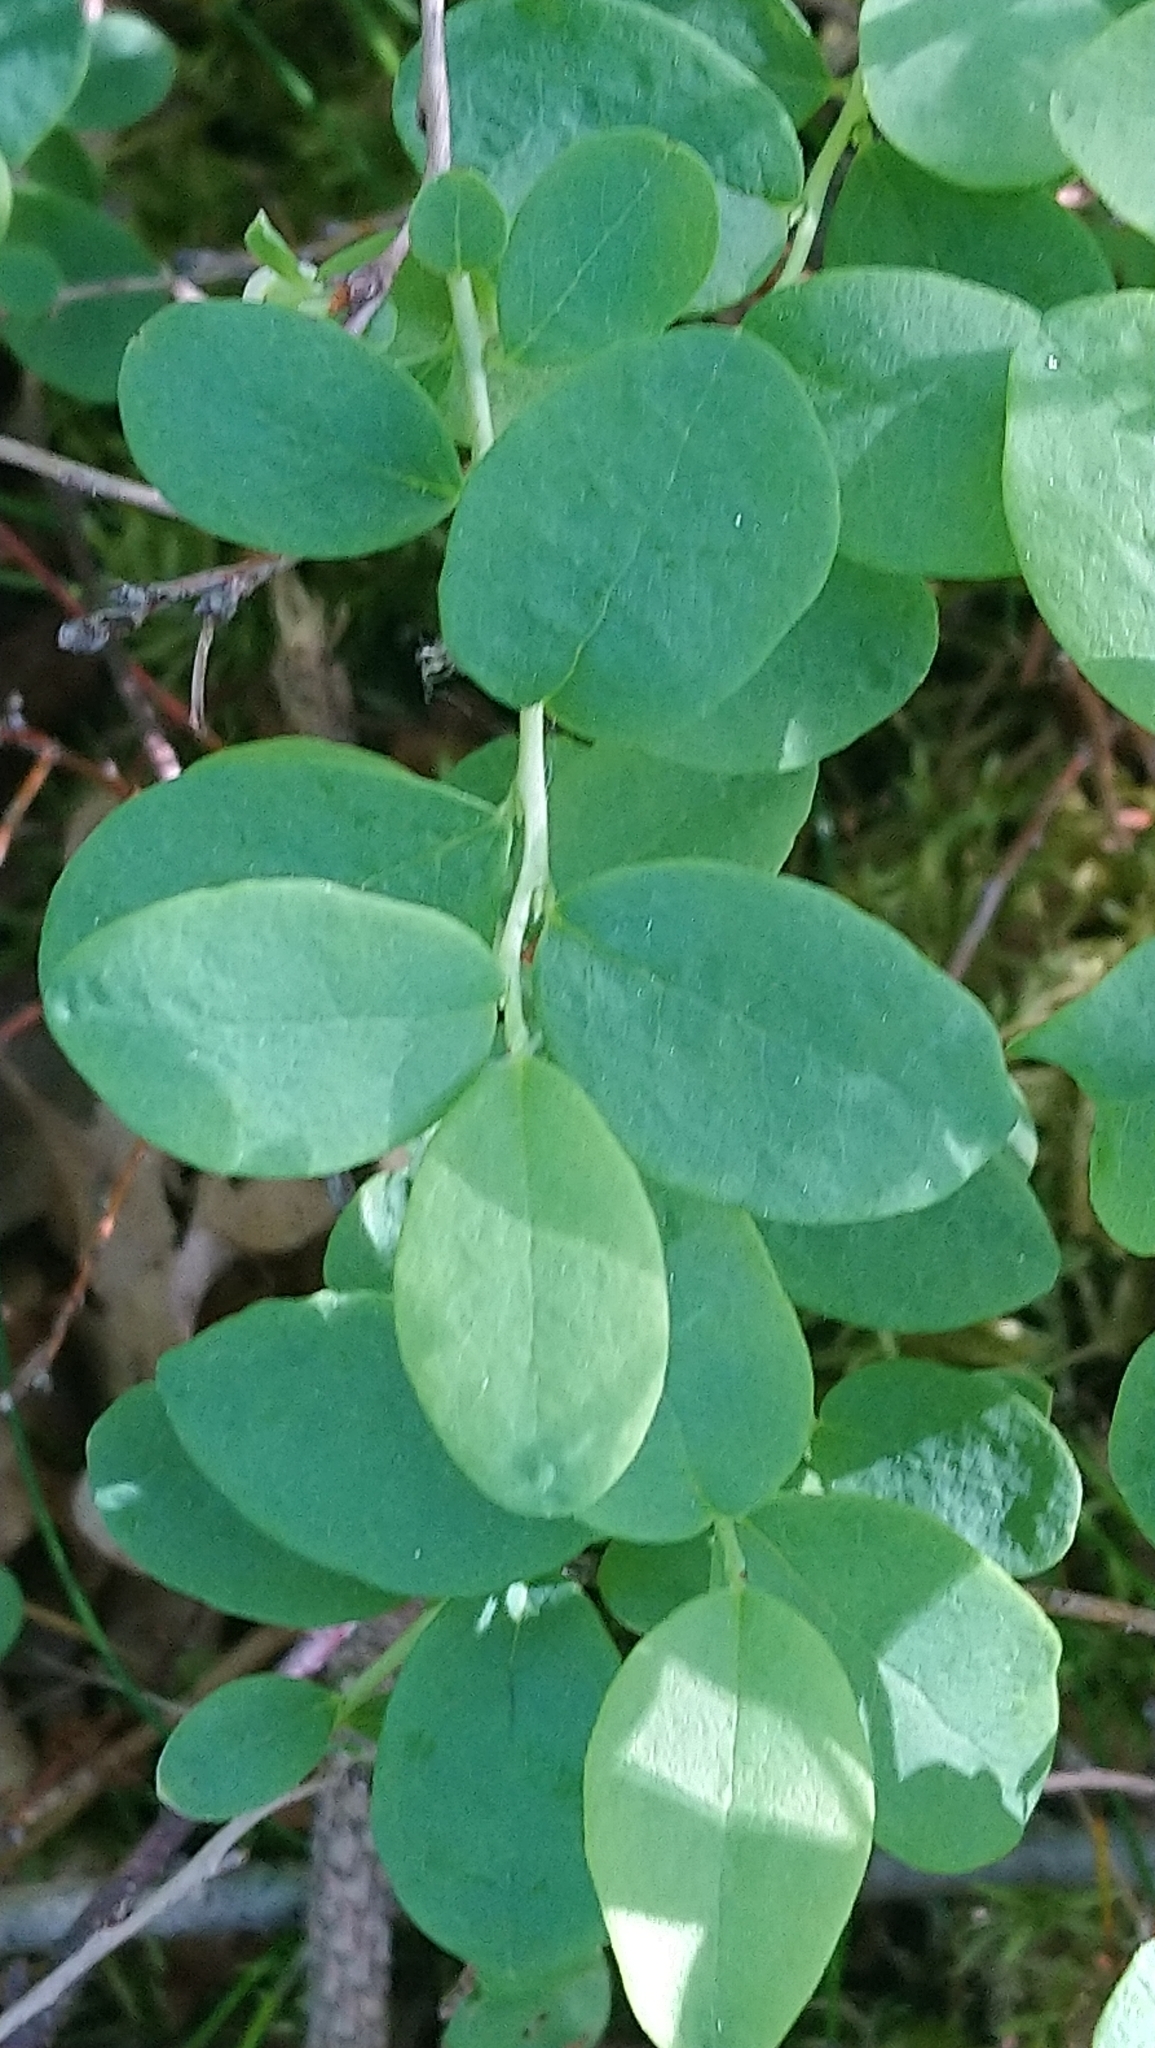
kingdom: Plantae
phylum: Tracheophyta
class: Magnoliopsida
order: Ericales
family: Ericaceae
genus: Vaccinium
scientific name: Vaccinium uliginosum
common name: Bog bilberry
